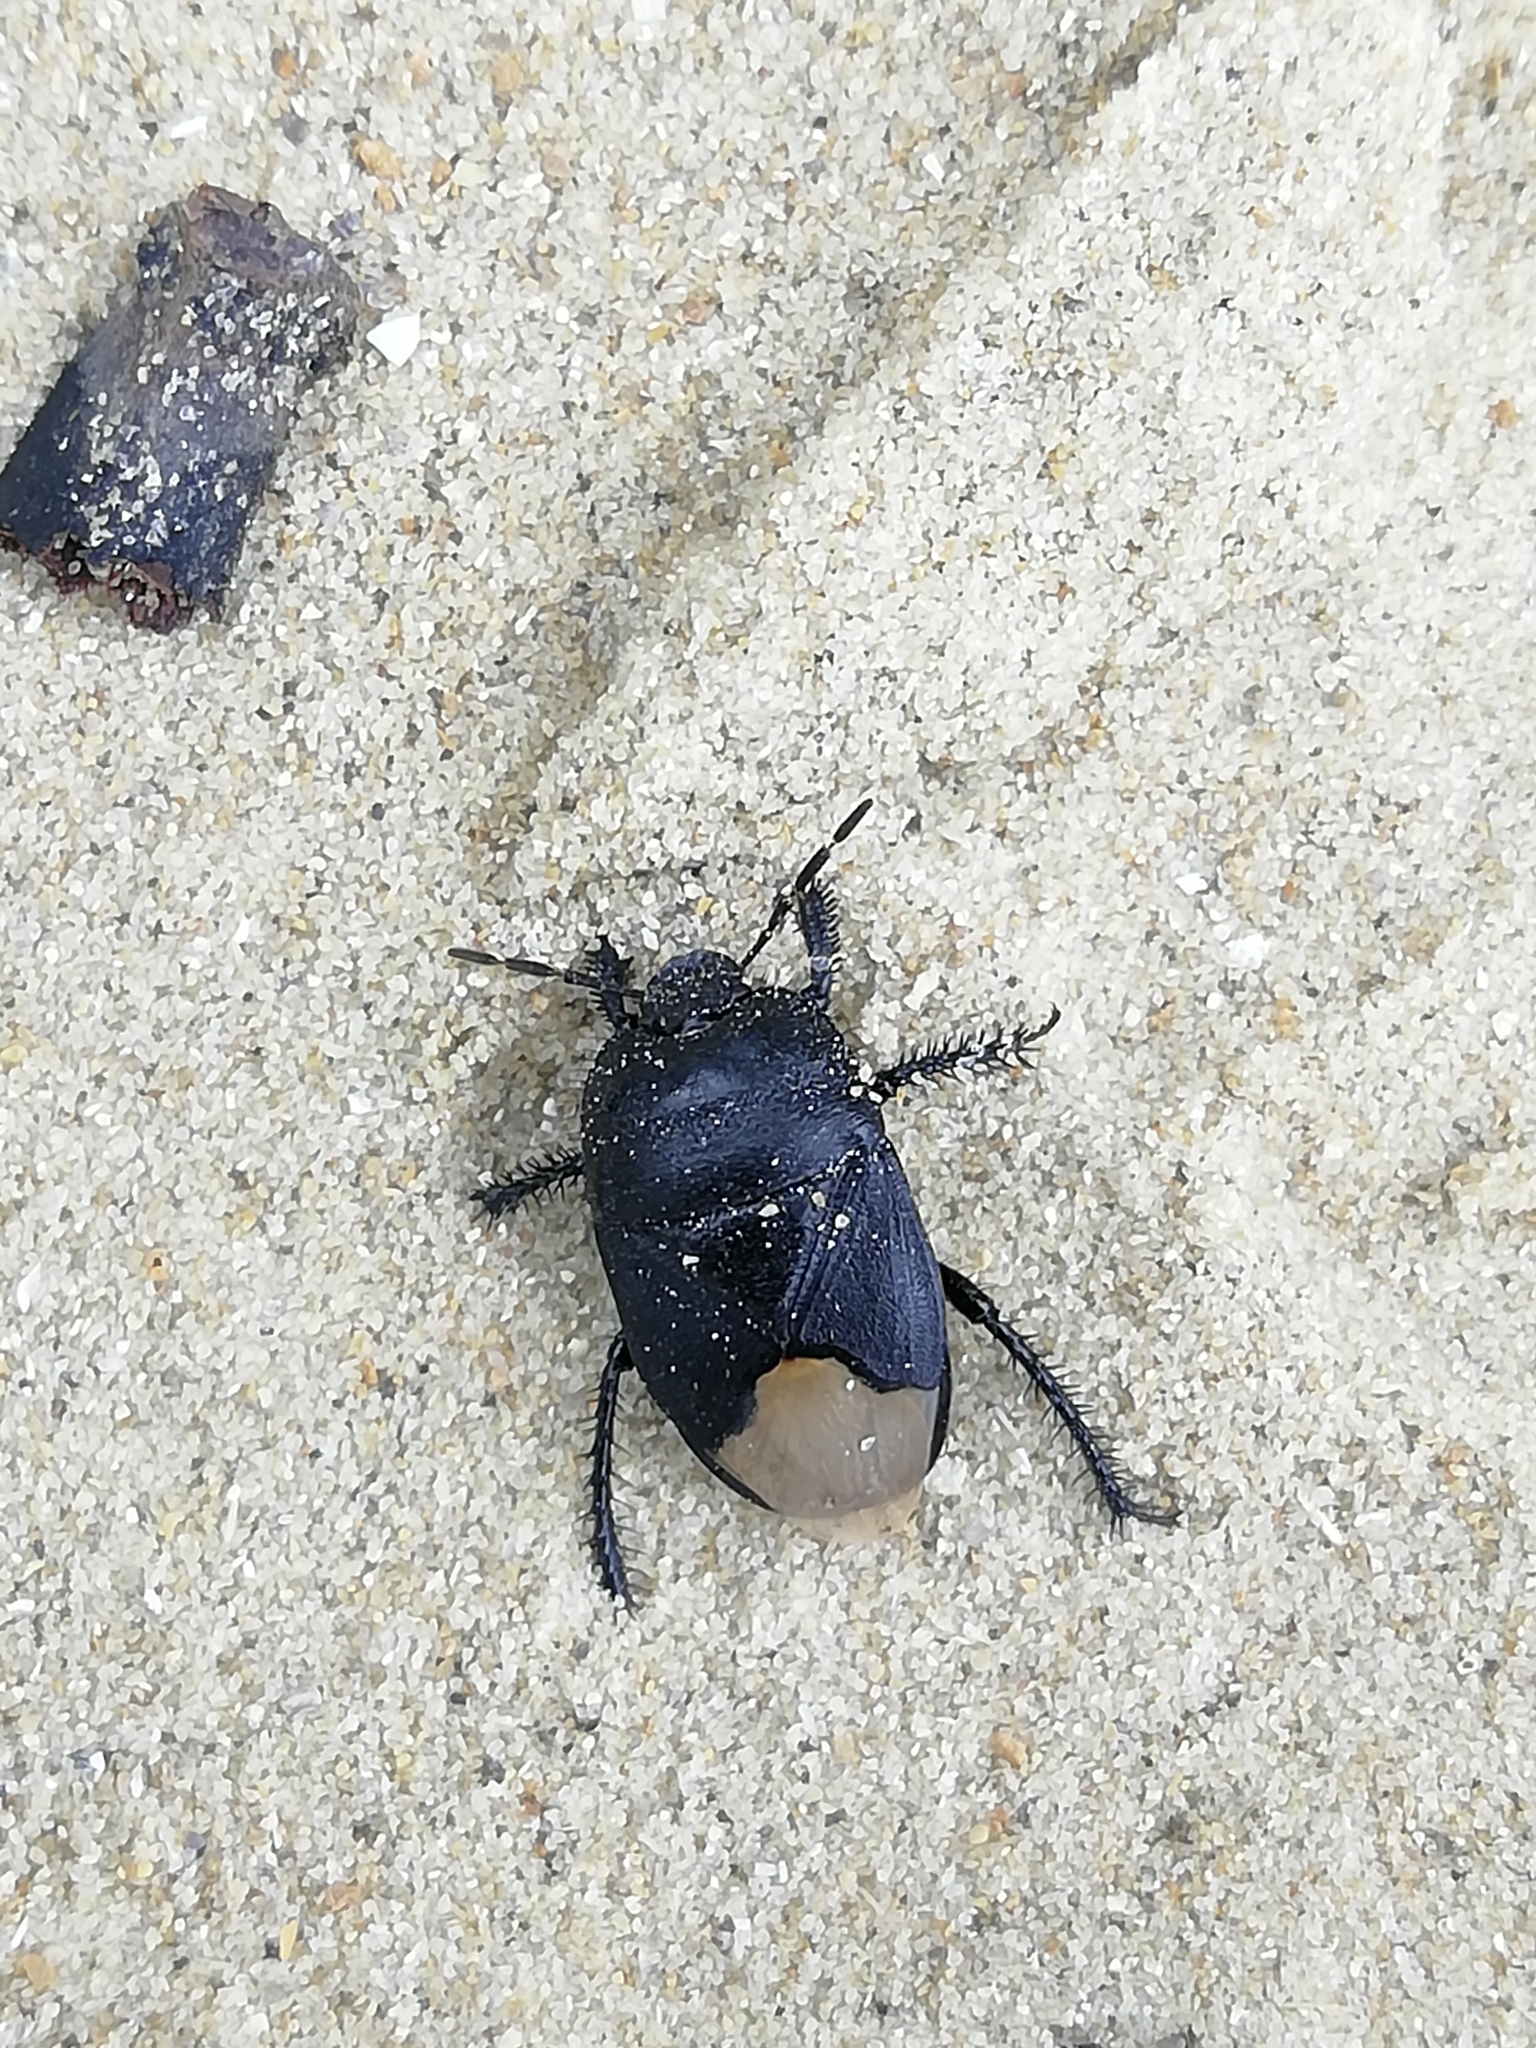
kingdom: Animalia
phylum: Arthropoda
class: Insecta
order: Hemiptera
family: Cydnidae
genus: Cydnus
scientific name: Cydnus aterrimus
